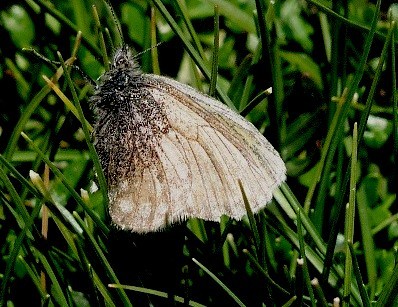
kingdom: Animalia
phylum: Arthropoda
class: Insecta
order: Lepidoptera
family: Nymphalidae
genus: Coenonympha
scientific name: Coenonympha semenovi
